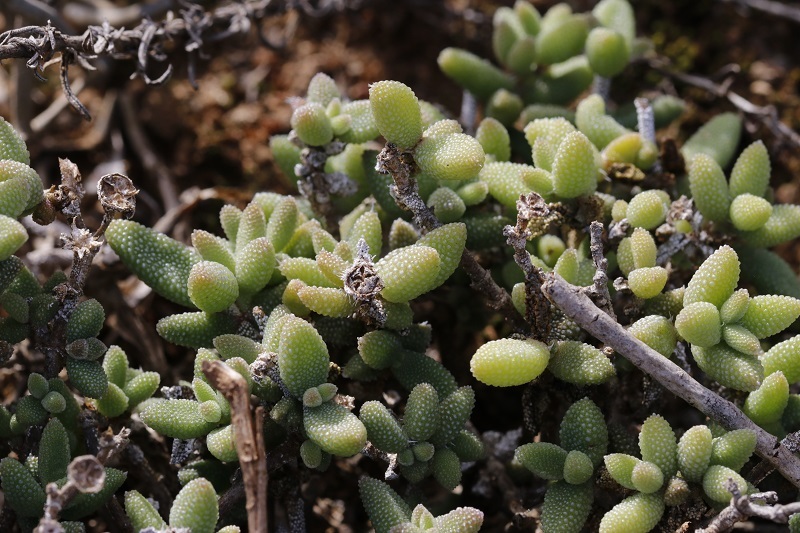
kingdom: Plantae
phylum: Tracheophyta
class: Magnoliopsida
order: Caryophyllales
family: Aizoaceae
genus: Delosperma
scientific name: Delosperma echinatum
